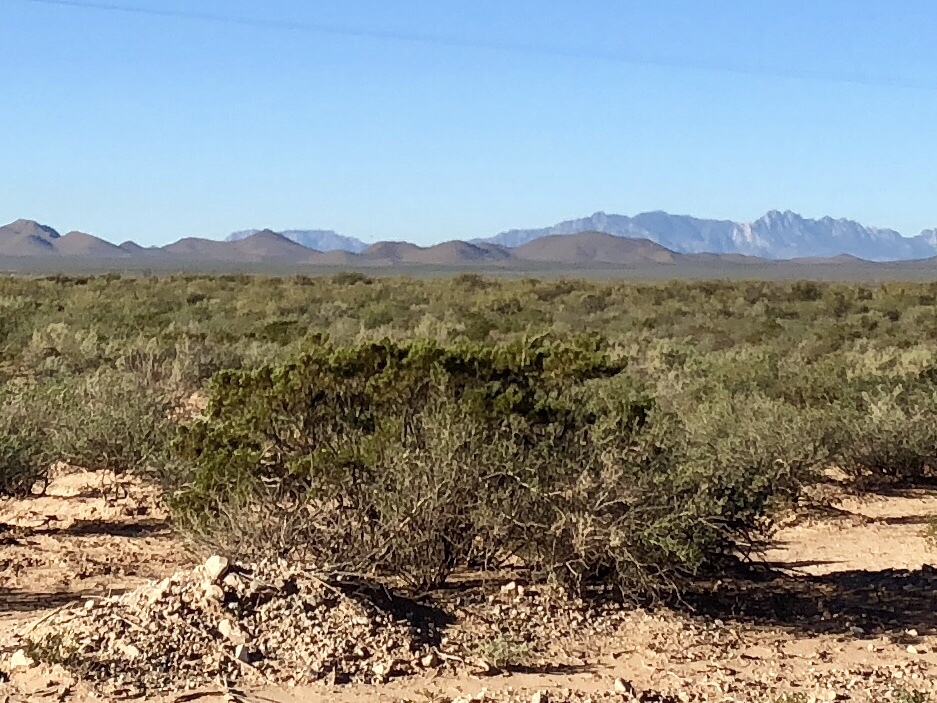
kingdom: Plantae
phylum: Tracheophyta
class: Magnoliopsida
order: Zygophyllales
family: Zygophyllaceae
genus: Larrea
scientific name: Larrea tridentata
